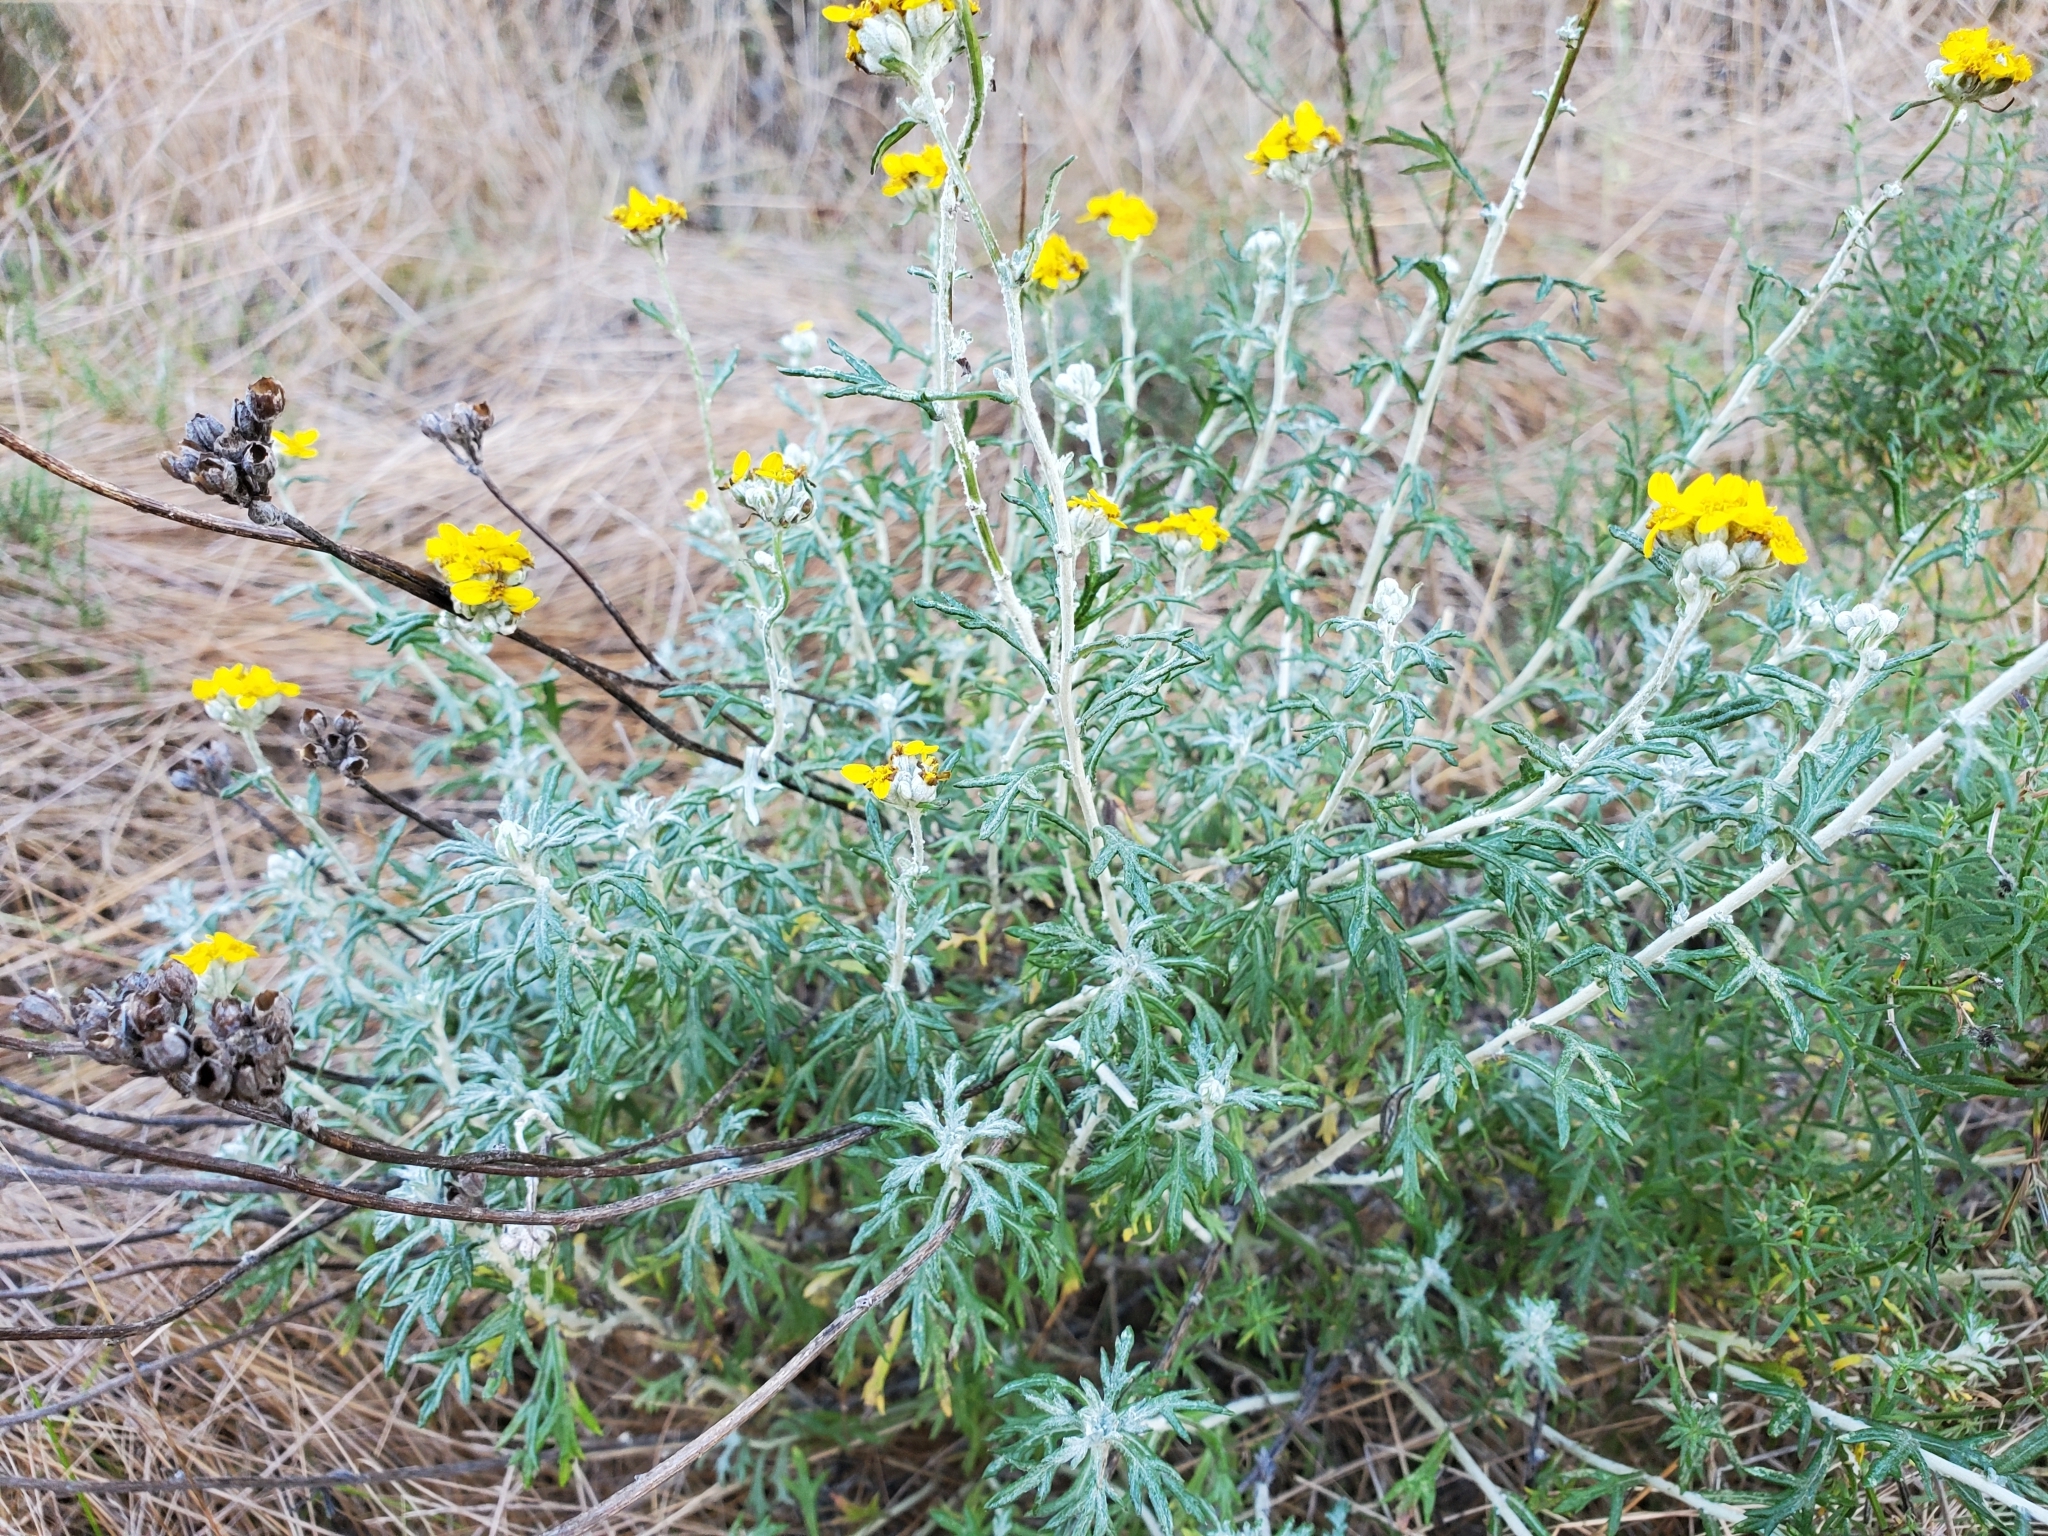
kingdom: Plantae
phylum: Tracheophyta
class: Magnoliopsida
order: Asterales
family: Asteraceae
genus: Eriophyllum
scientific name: Eriophyllum confertiflorum
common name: Golden-yarrow
